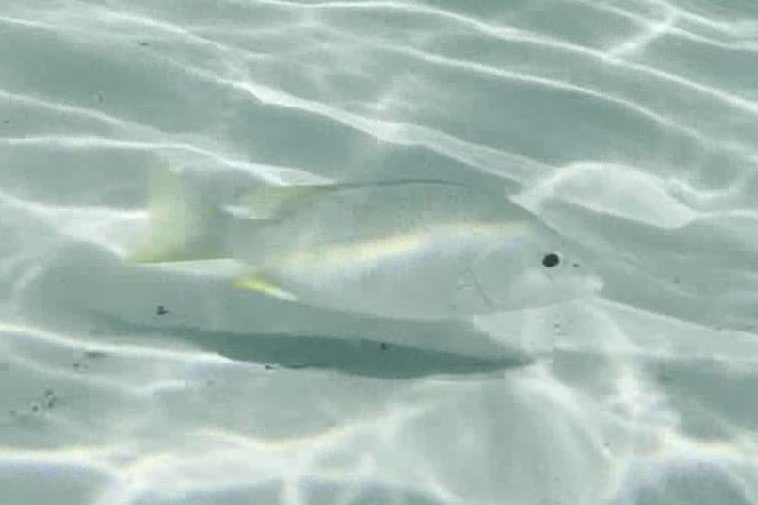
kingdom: Animalia
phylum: Chordata
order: Perciformes
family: Lutjanidae
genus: Lutjanus
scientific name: Lutjanus apodus
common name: Schoolmaster
